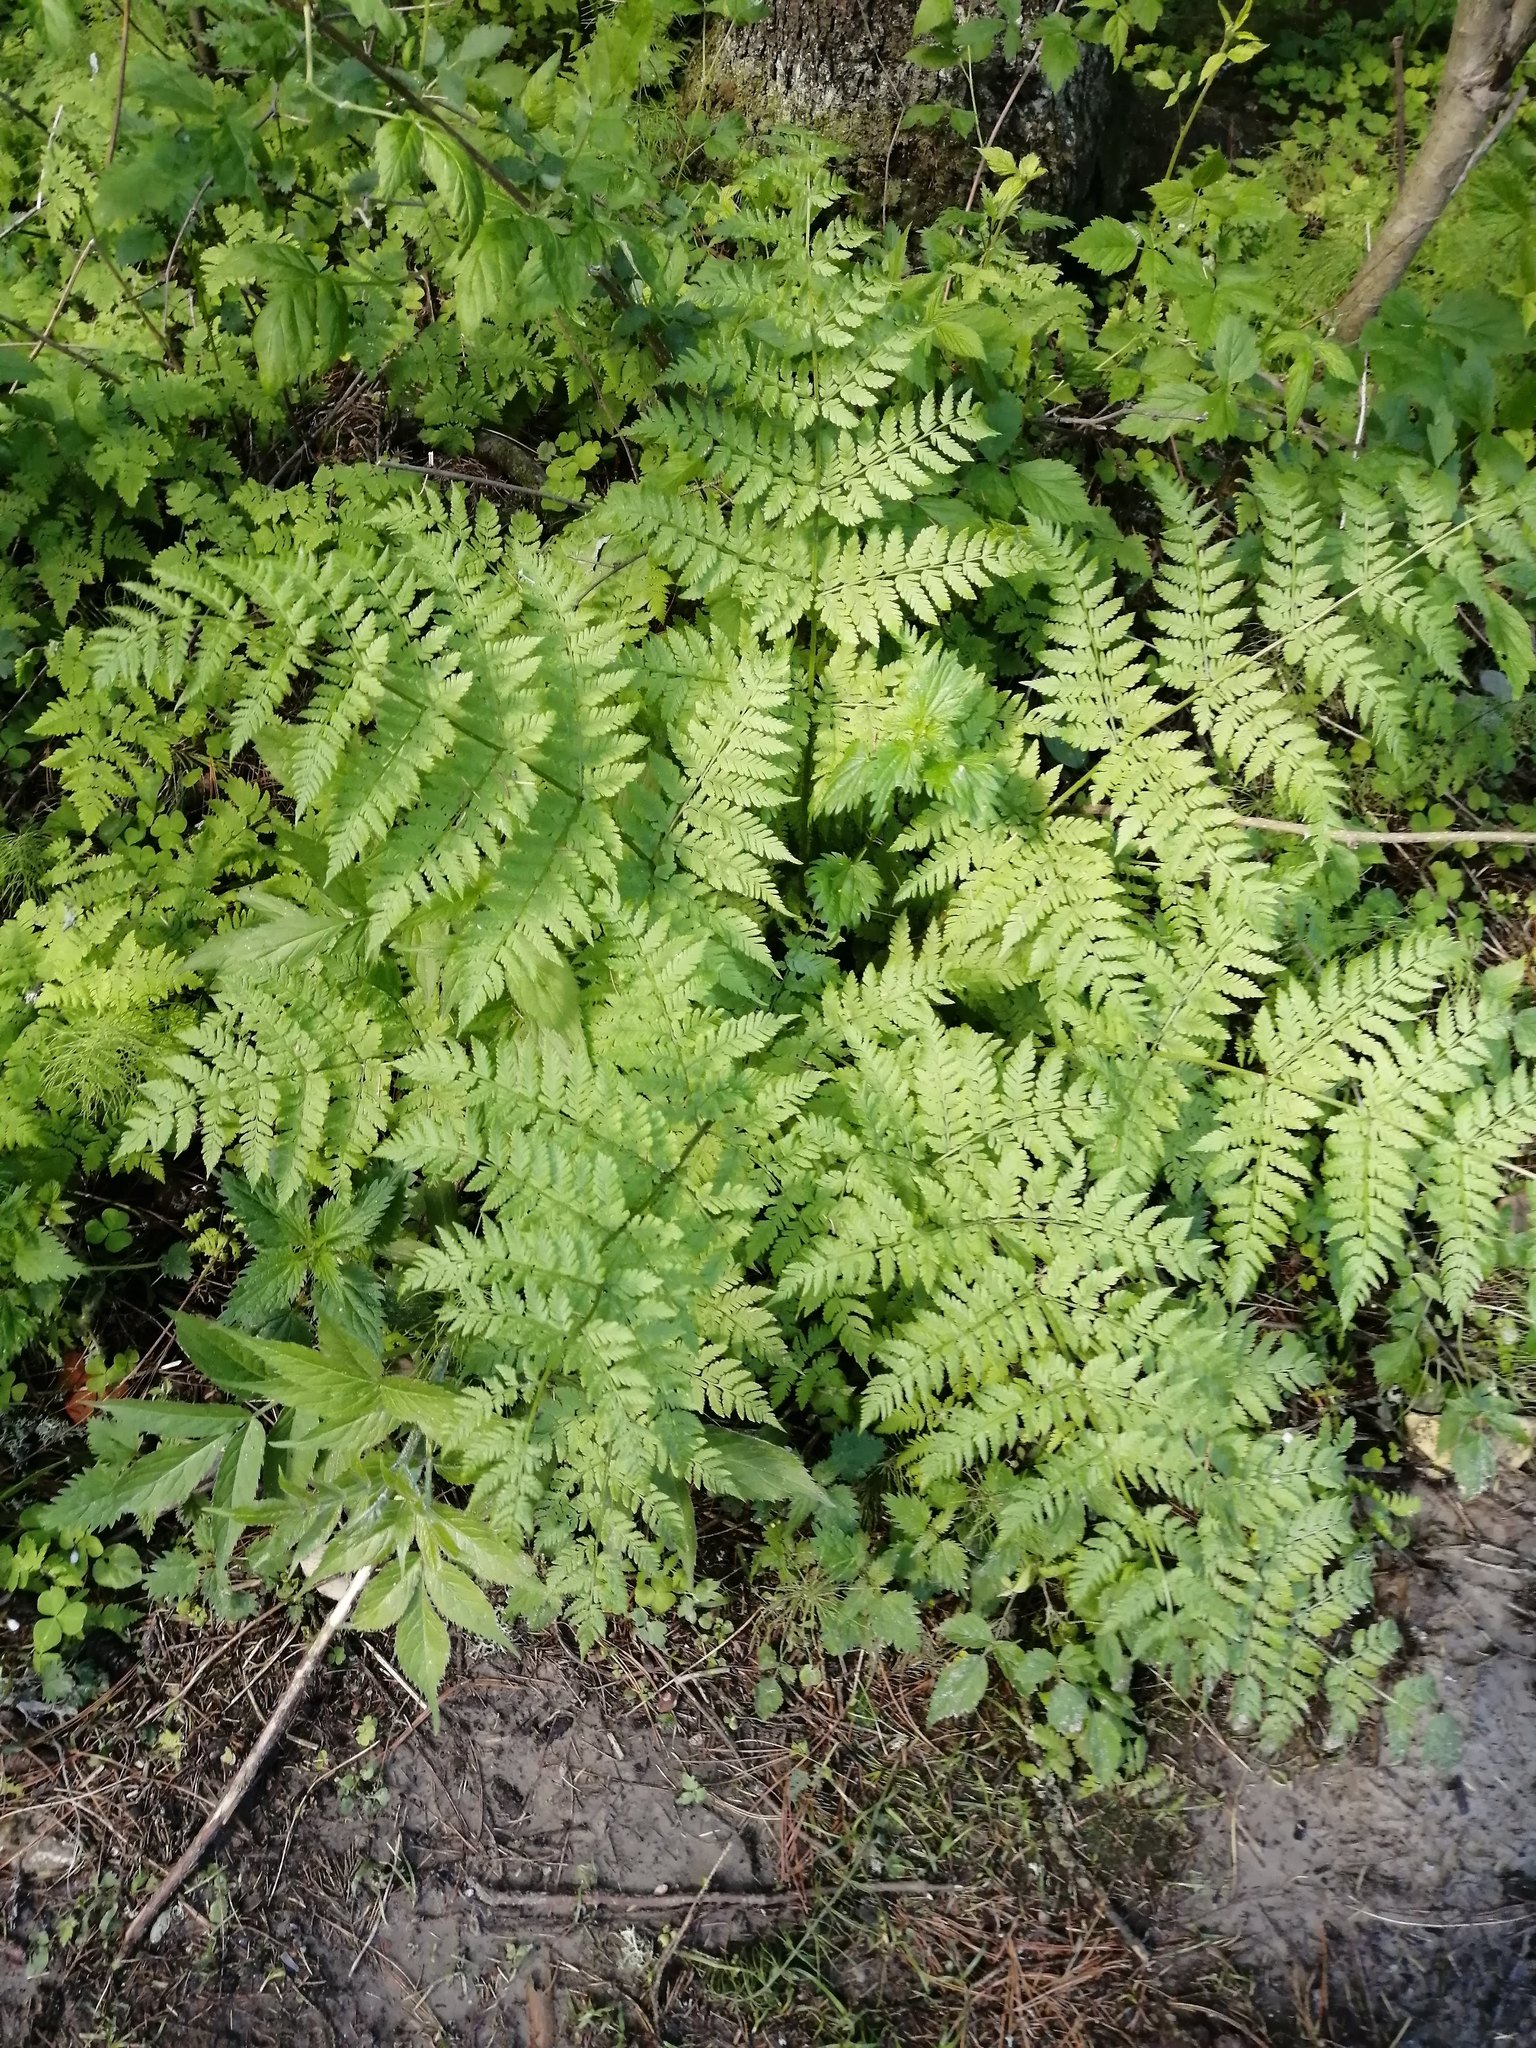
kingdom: Plantae
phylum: Tracheophyta
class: Polypodiopsida
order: Polypodiales
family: Dryopteridaceae
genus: Dryopteris
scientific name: Dryopteris expansa
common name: Northern buckler fern
